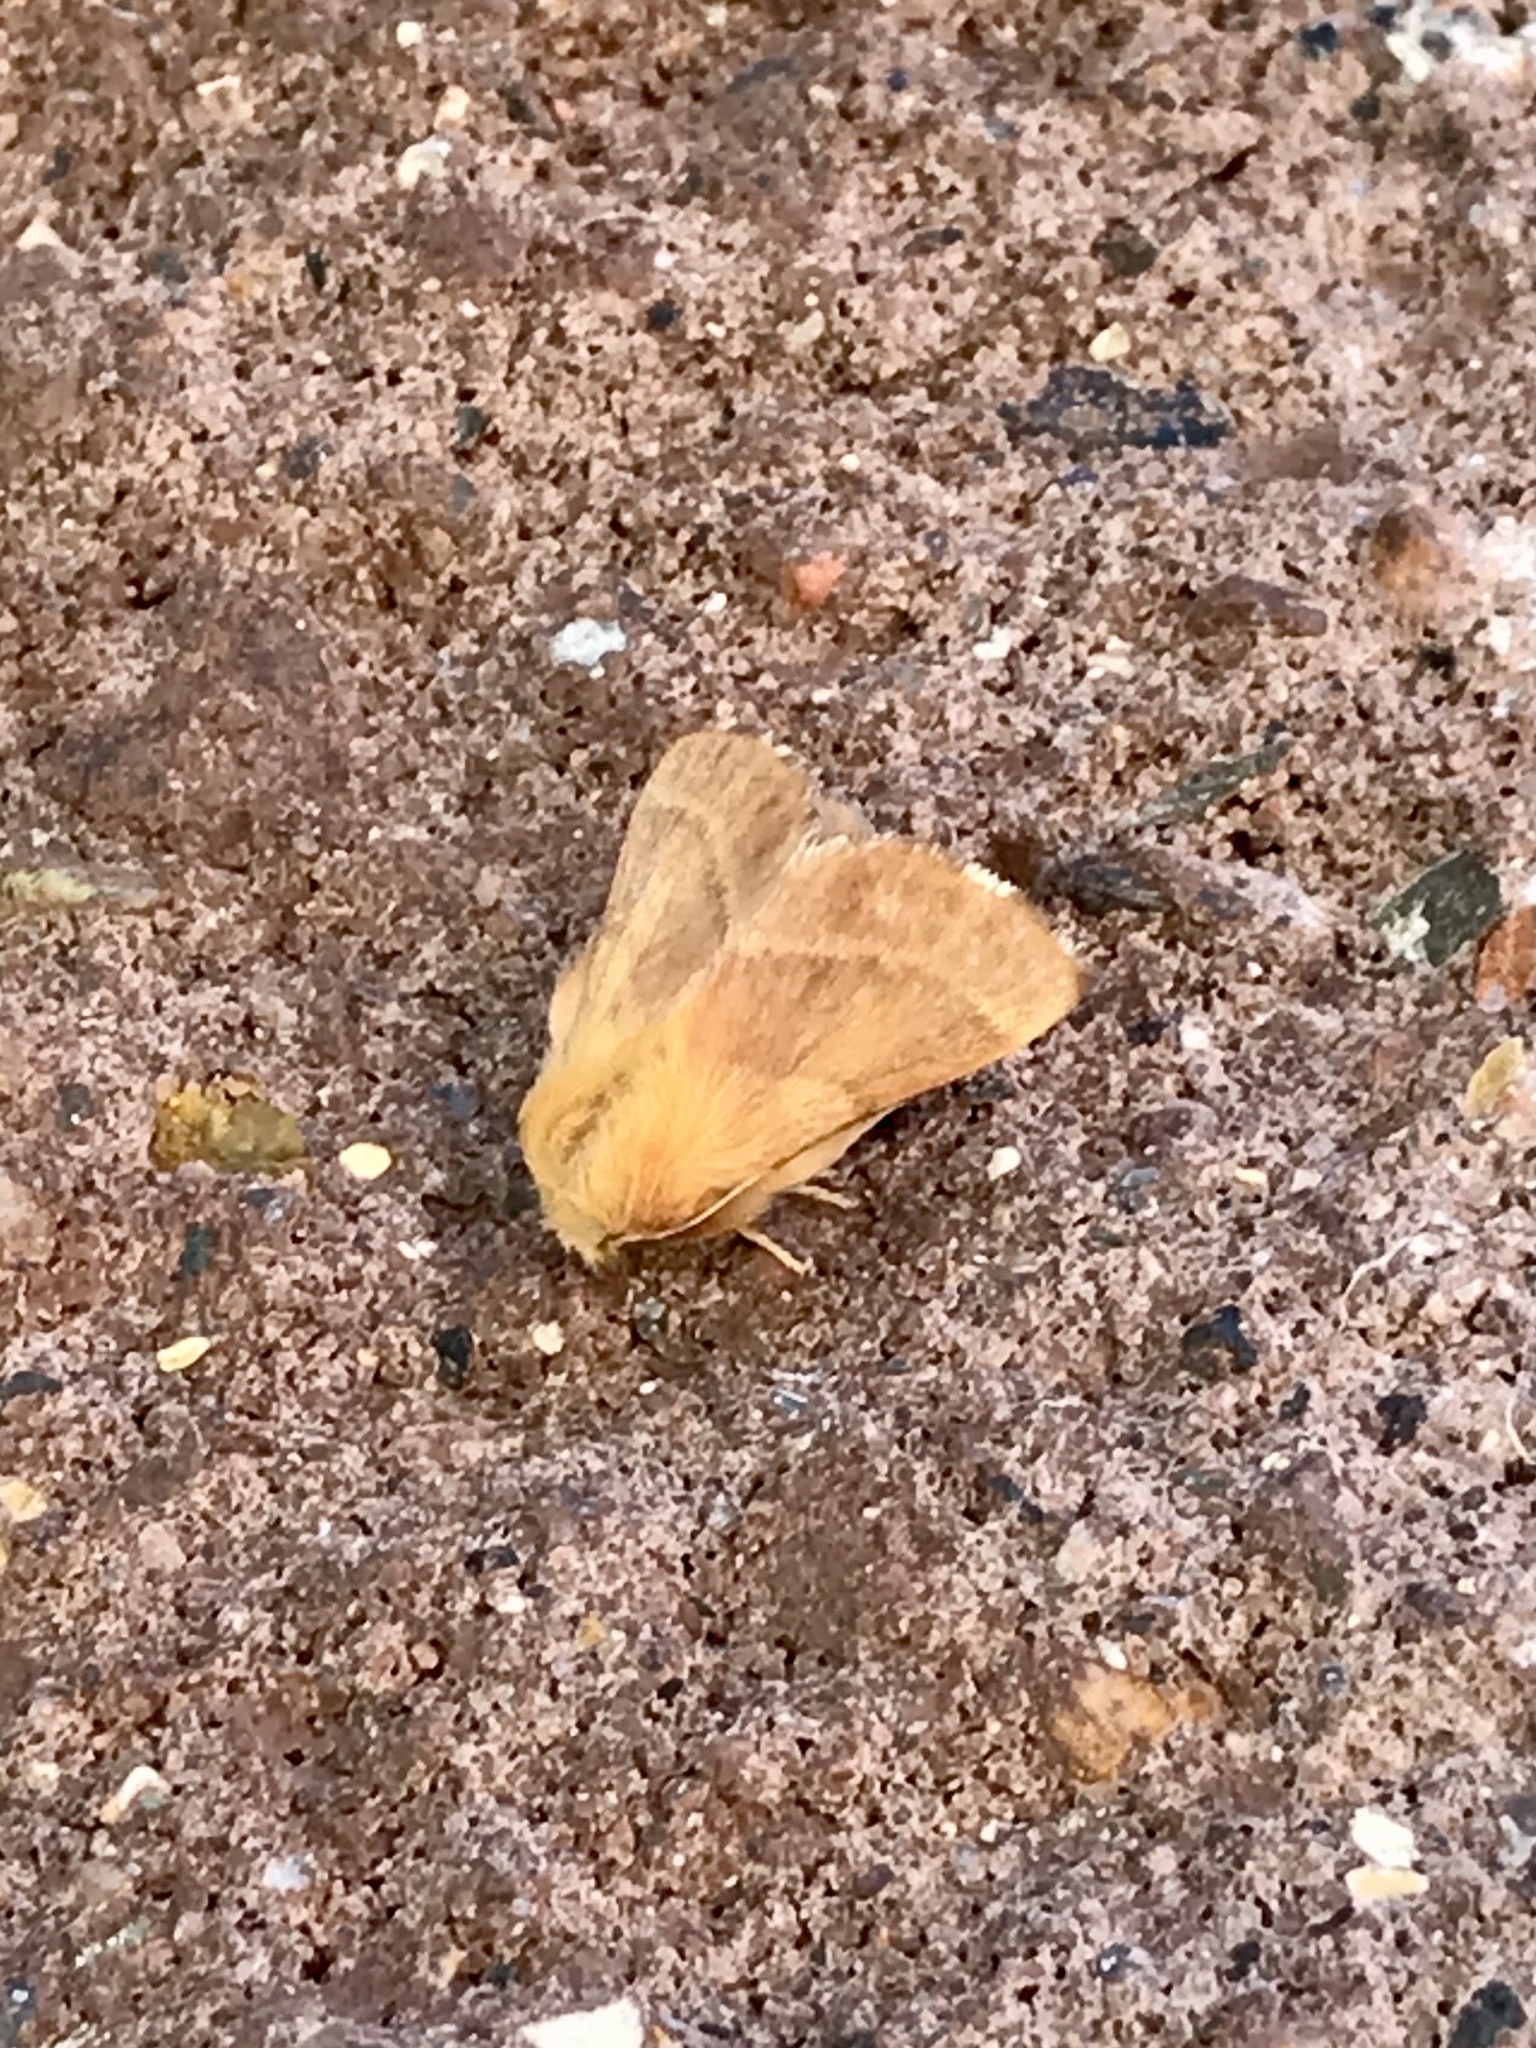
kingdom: Animalia
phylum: Arthropoda
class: Insecta
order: Lepidoptera
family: Lasiocampidae
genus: Malacosoma
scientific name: Malacosoma disstria
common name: Forest tent caterpillar
